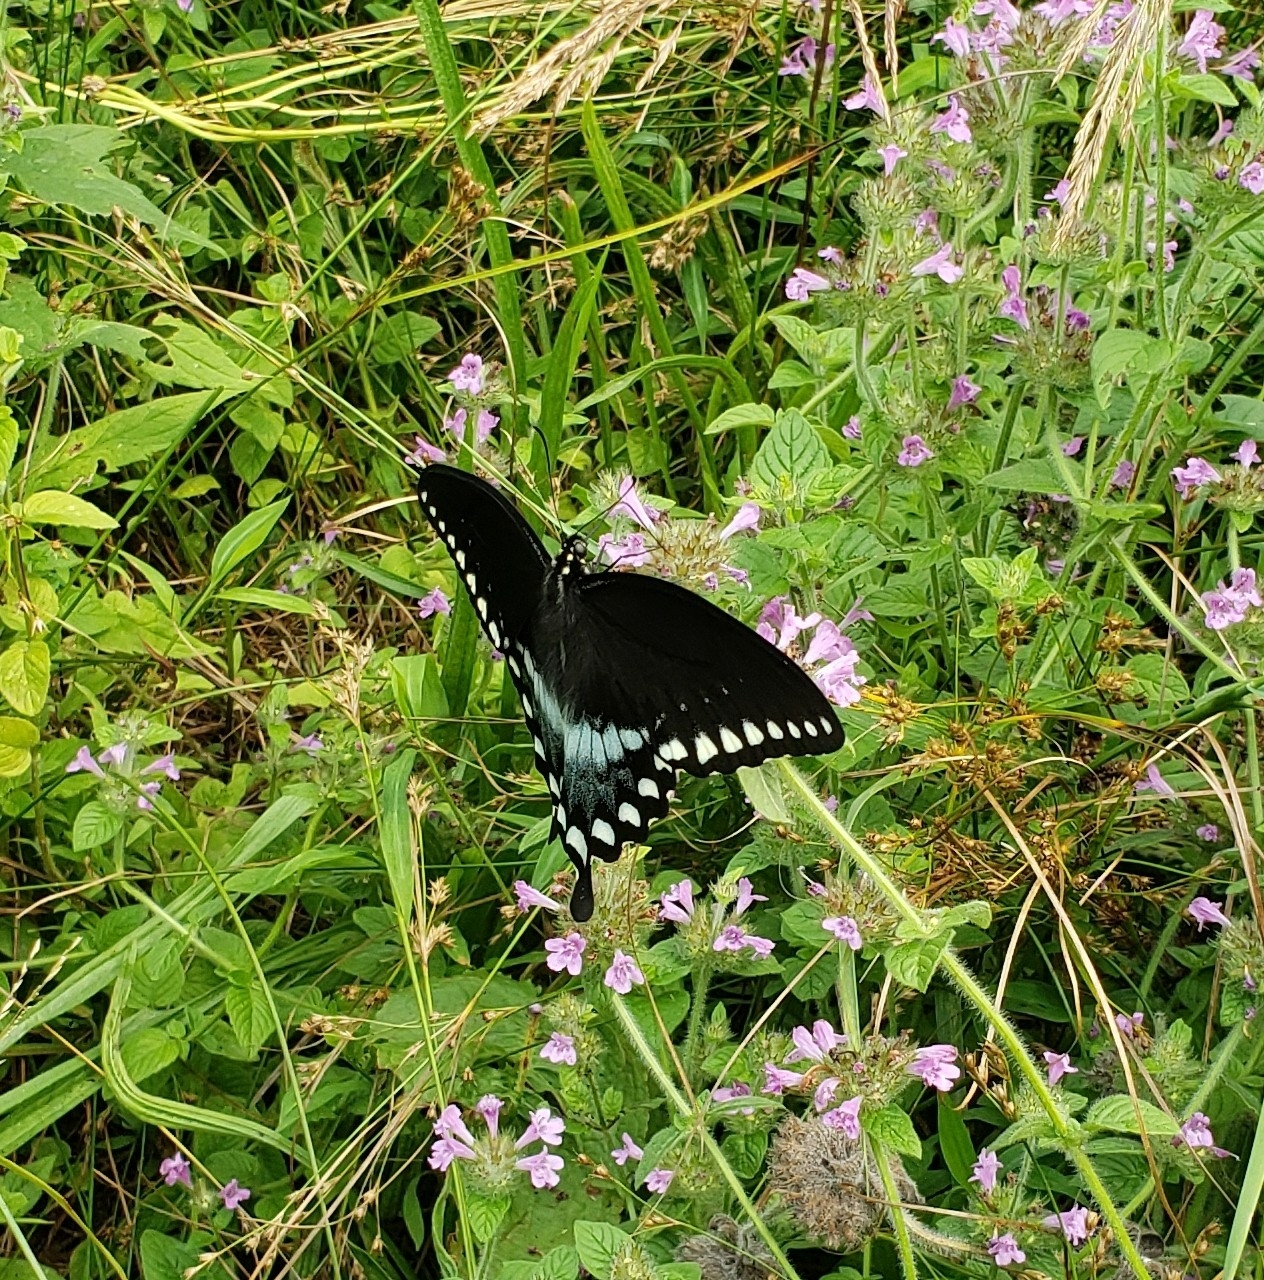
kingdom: Animalia
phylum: Arthropoda
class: Insecta
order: Lepidoptera
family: Papilionidae
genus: Papilio
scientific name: Papilio troilus
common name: Spicebush swallowtail
